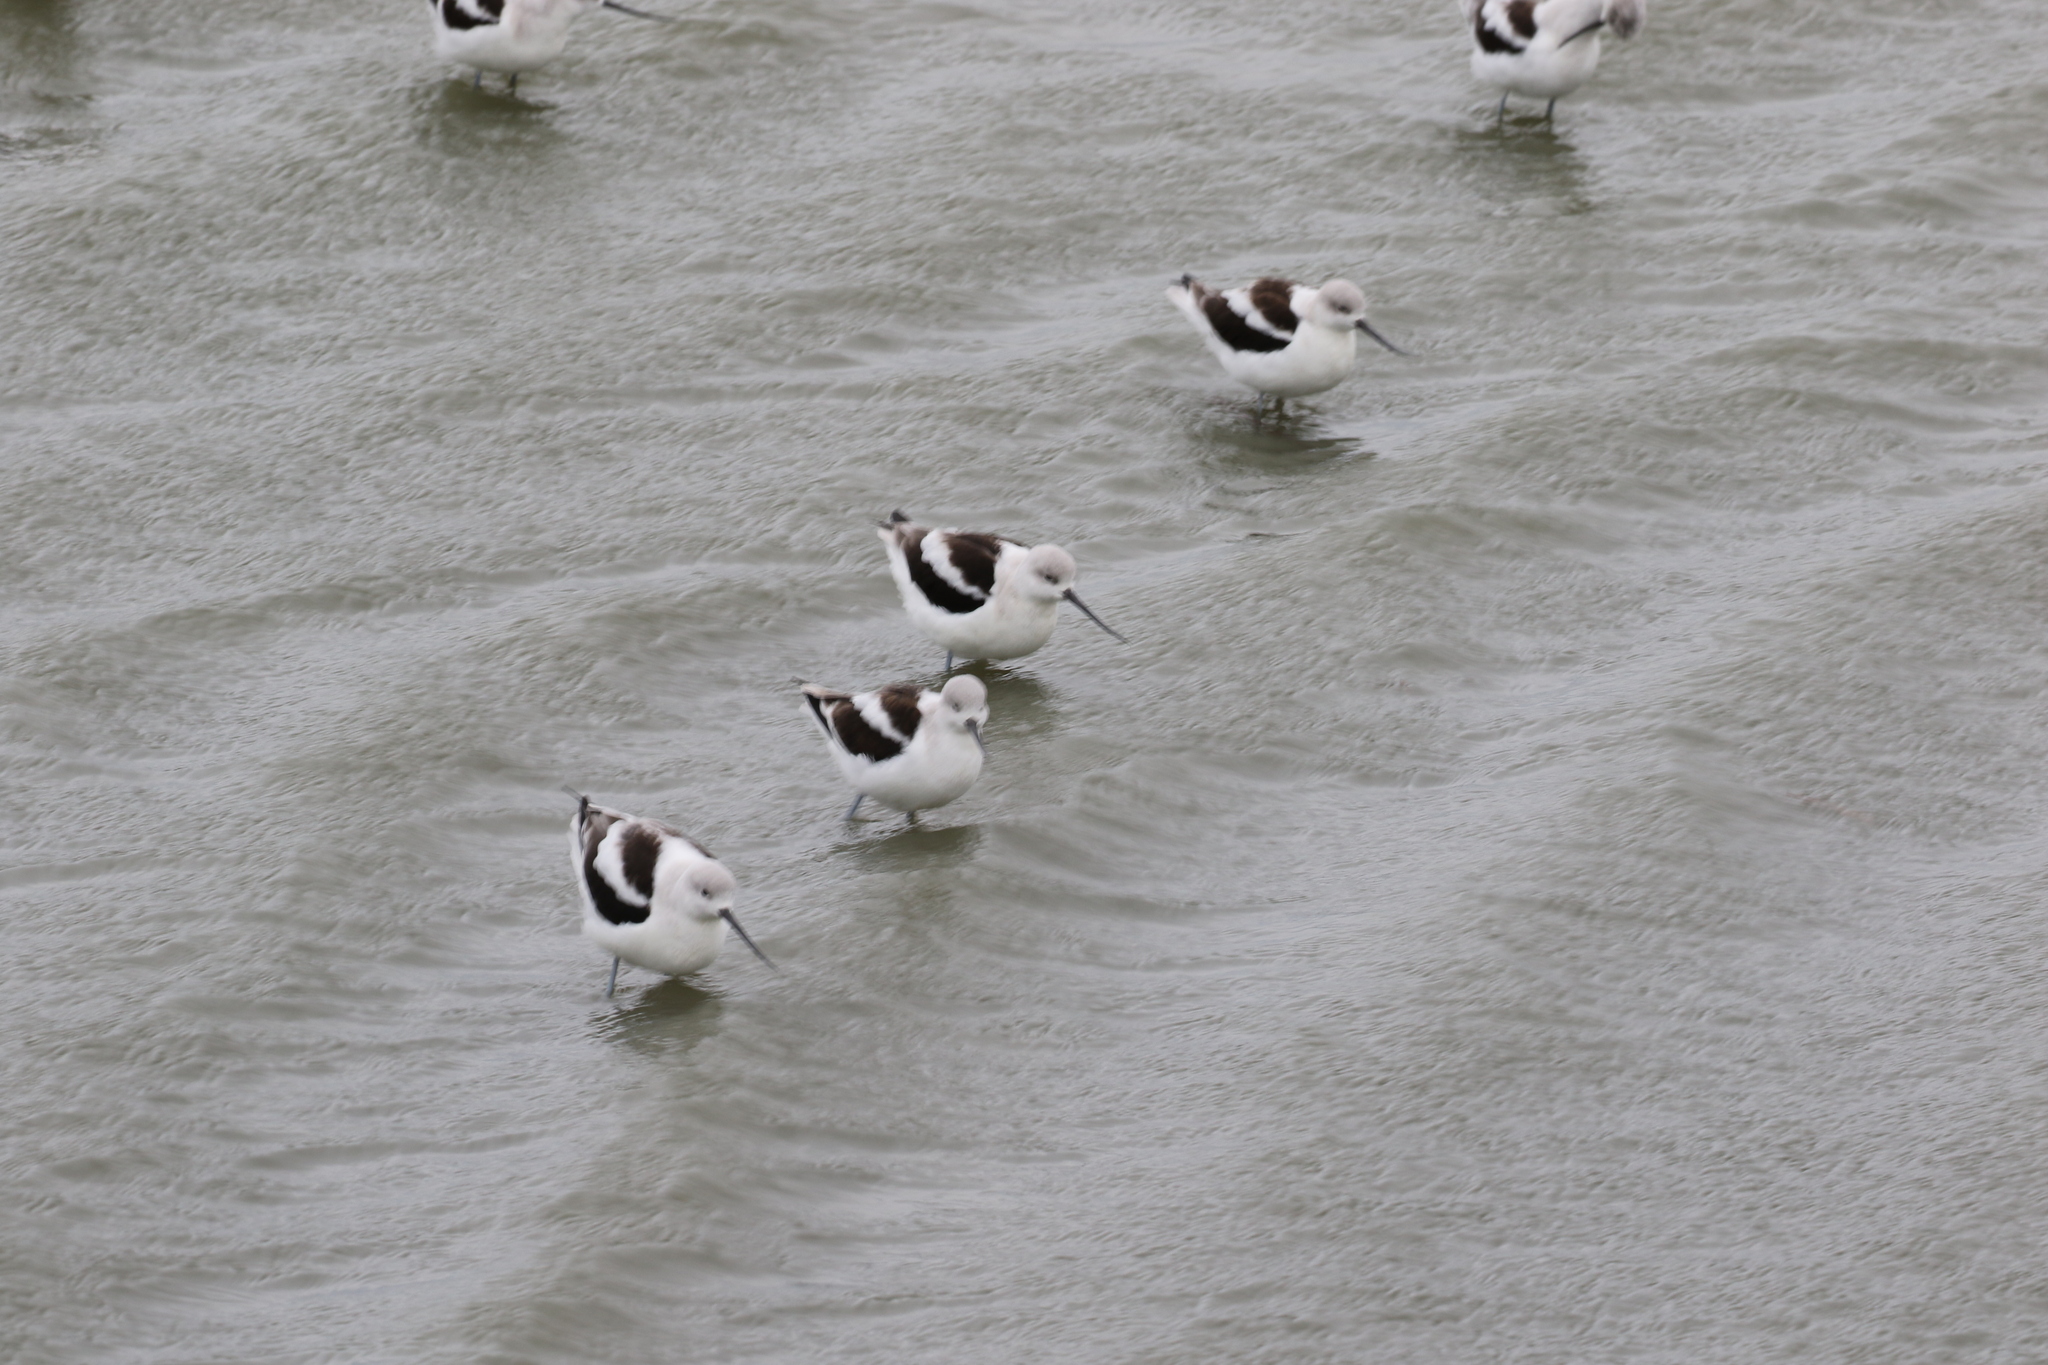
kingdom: Animalia
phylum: Chordata
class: Aves
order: Charadriiformes
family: Recurvirostridae
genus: Recurvirostra
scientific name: Recurvirostra americana
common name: American avocet
